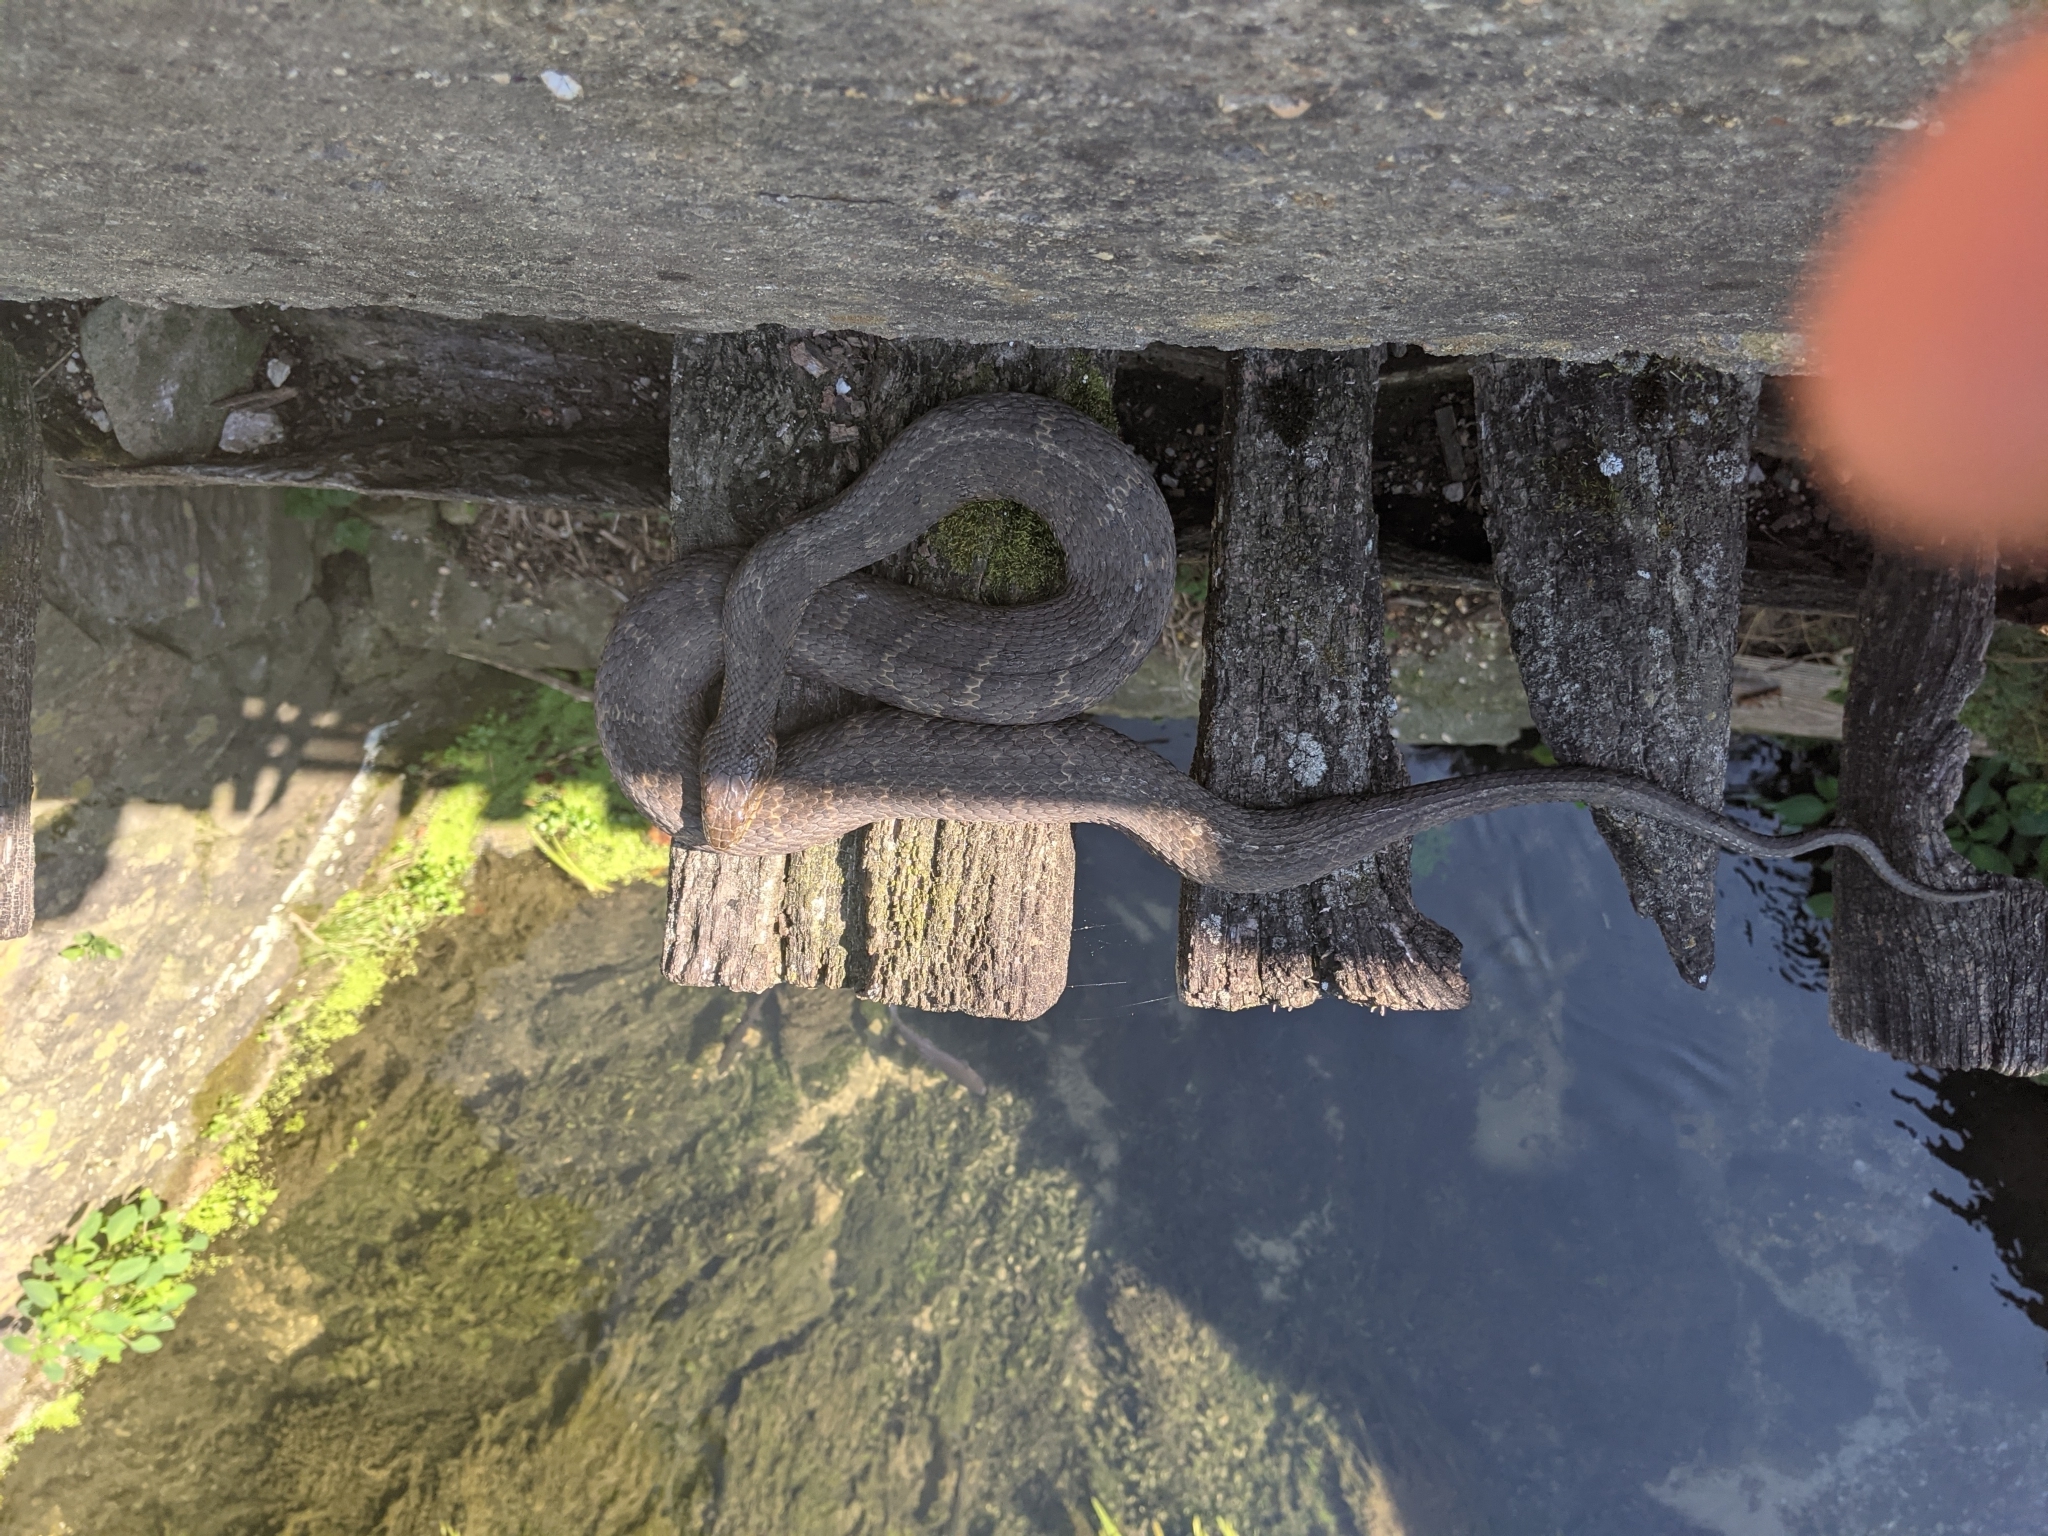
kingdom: Animalia
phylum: Chordata
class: Squamata
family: Colubridae
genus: Nerodia
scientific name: Nerodia sipedon
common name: Northern water snake
